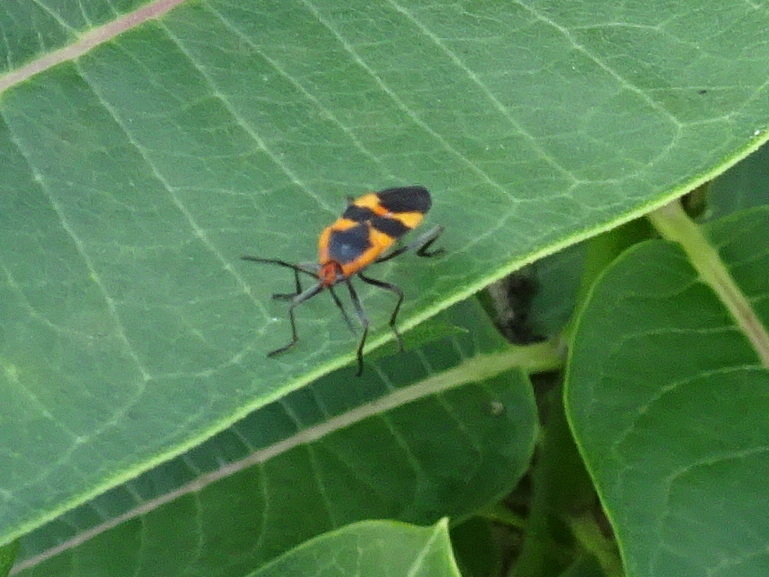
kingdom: Animalia
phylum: Arthropoda
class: Insecta
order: Hemiptera
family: Lygaeidae
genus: Oncopeltus
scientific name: Oncopeltus fasciatus
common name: Large milkweed bug
